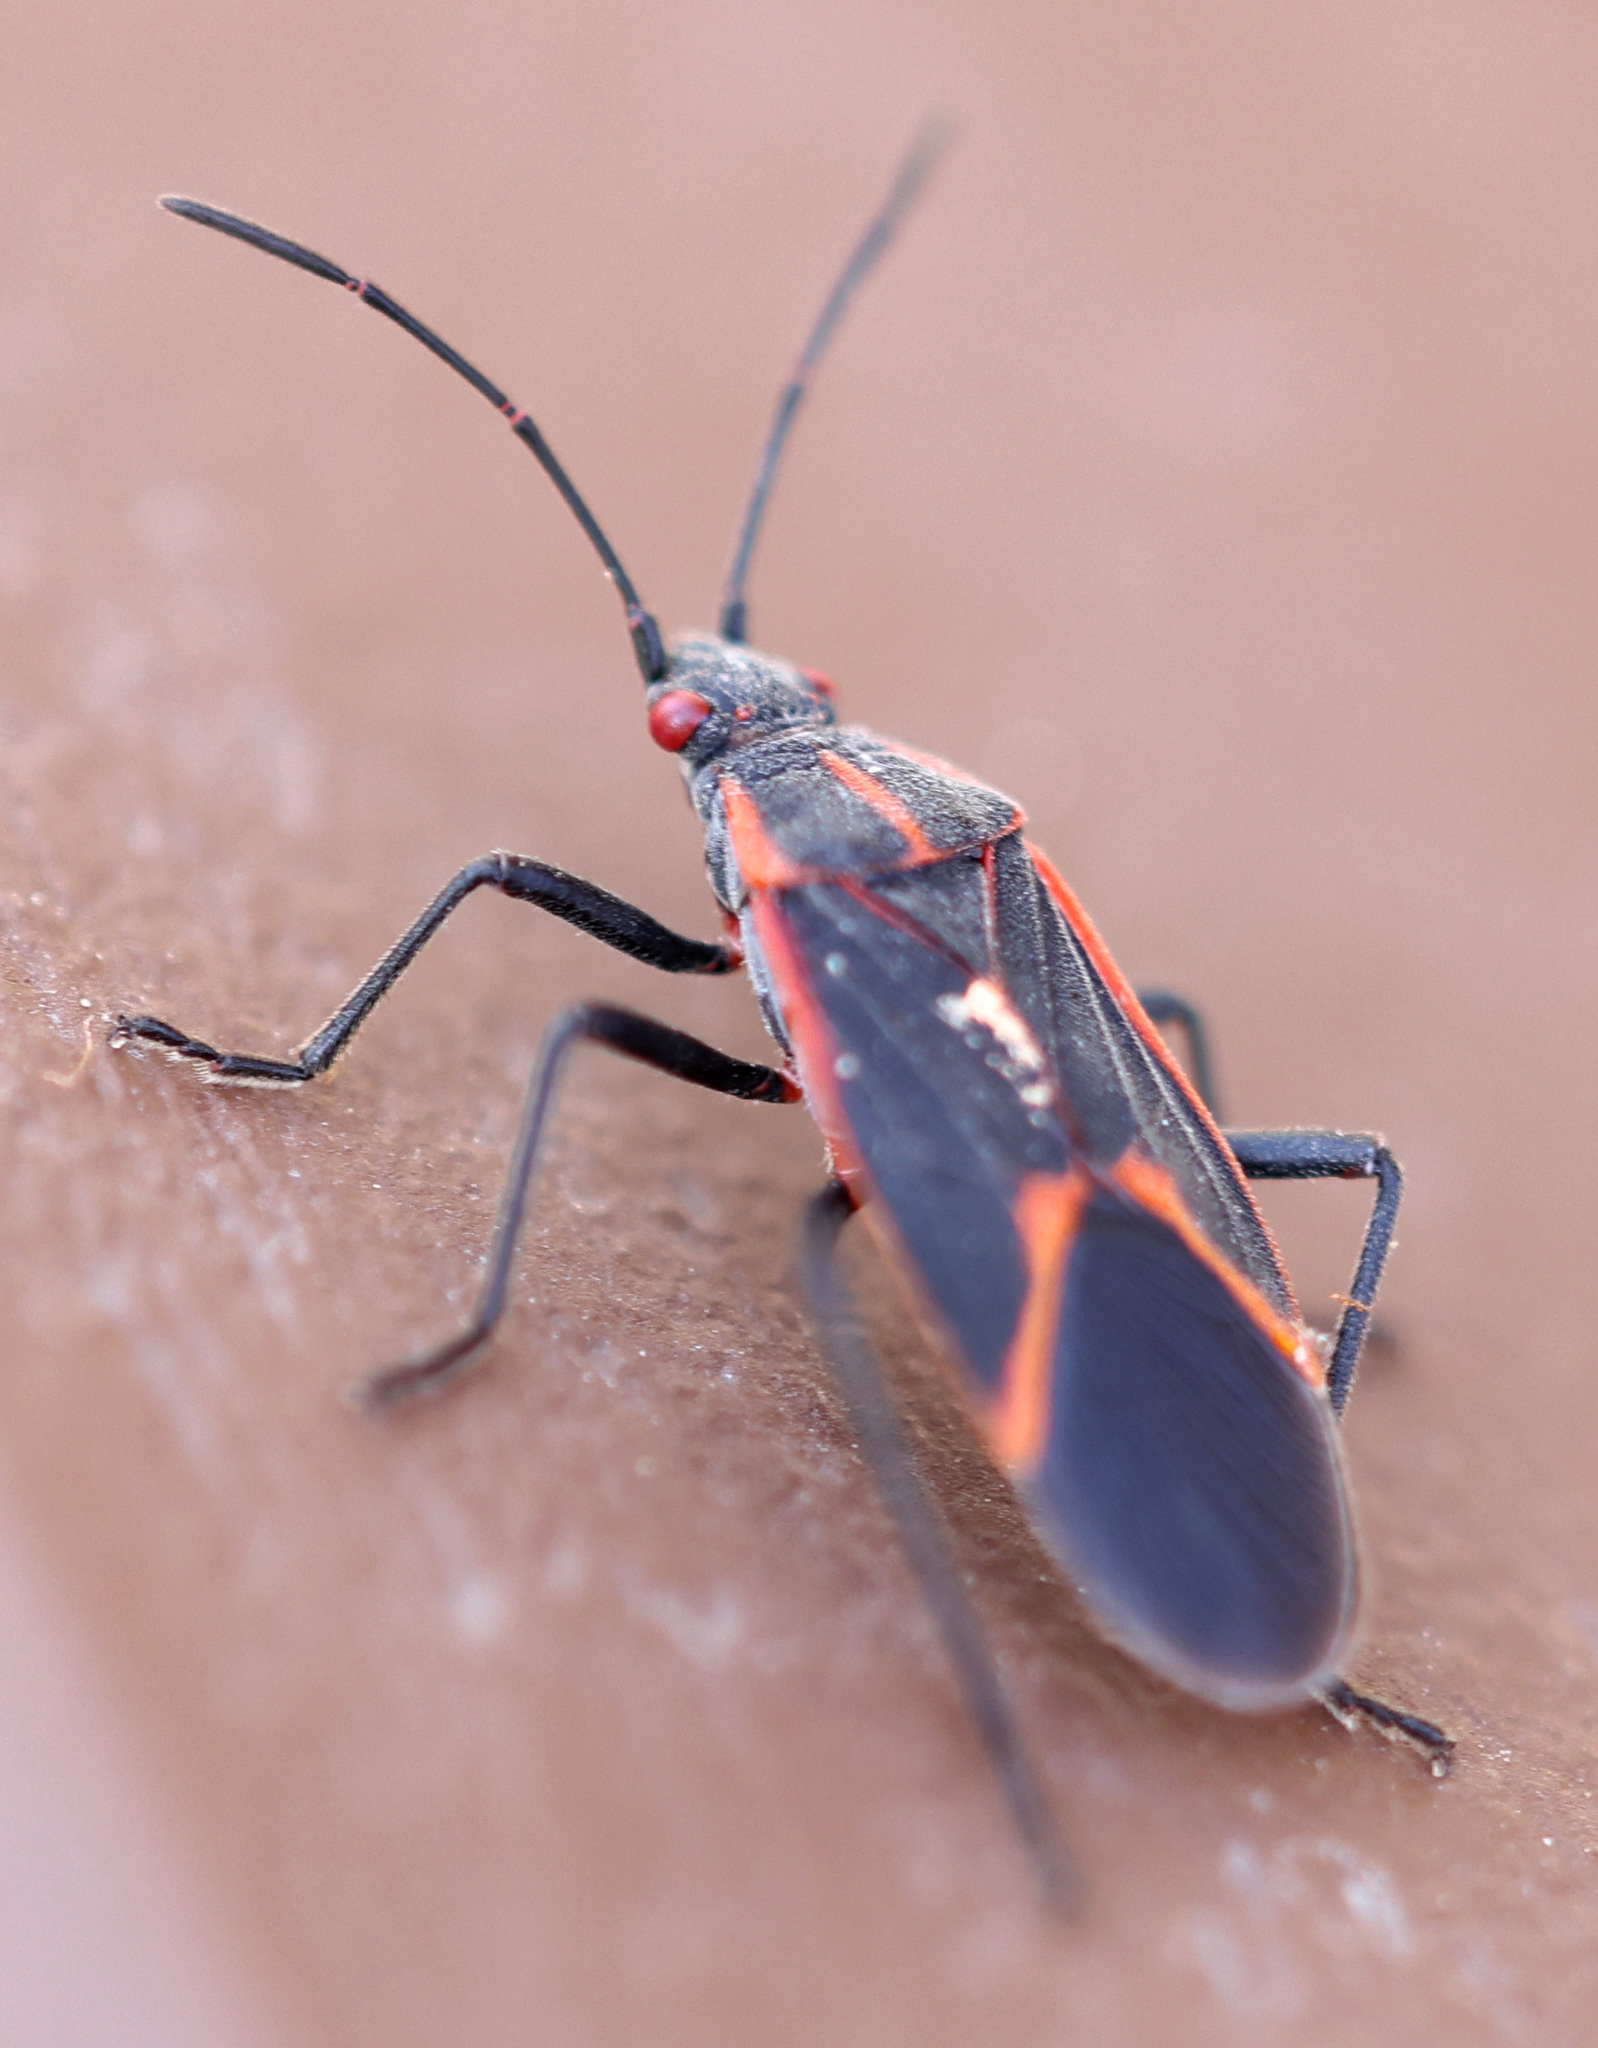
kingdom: Animalia
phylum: Arthropoda
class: Insecta
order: Hemiptera
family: Rhopalidae
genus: Boisea
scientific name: Boisea trivittata
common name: Boxelder bug
